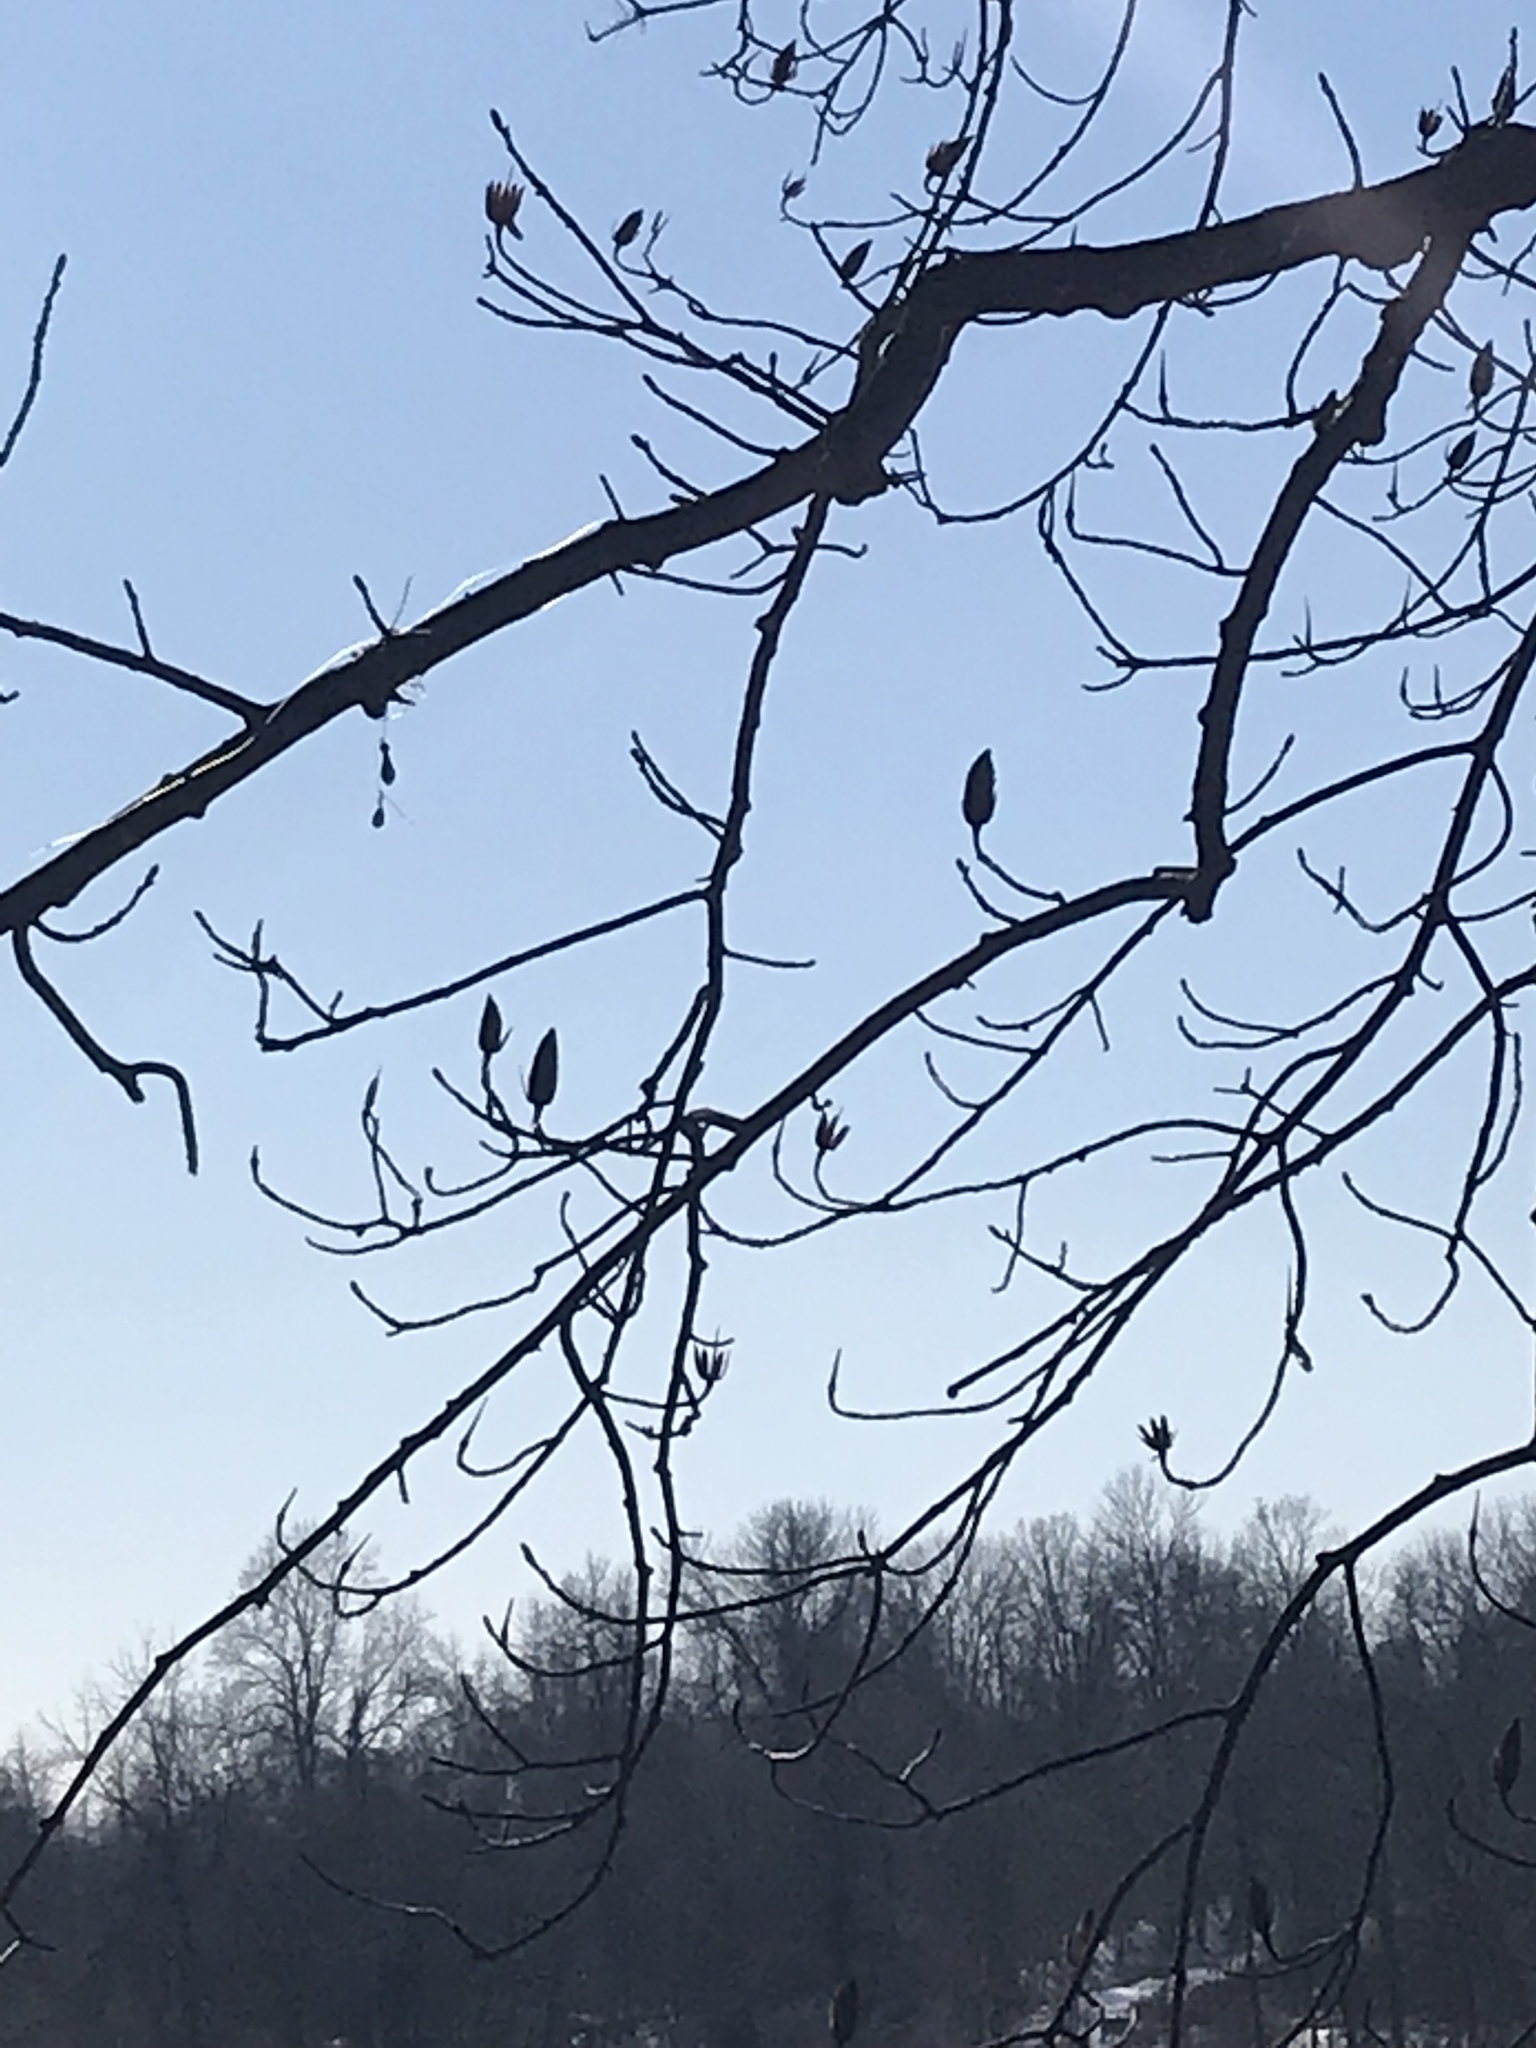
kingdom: Plantae
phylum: Tracheophyta
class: Magnoliopsida
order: Magnoliales
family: Magnoliaceae
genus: Liriodendron
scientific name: Liriodendron tulipifera
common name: Tulip tree
